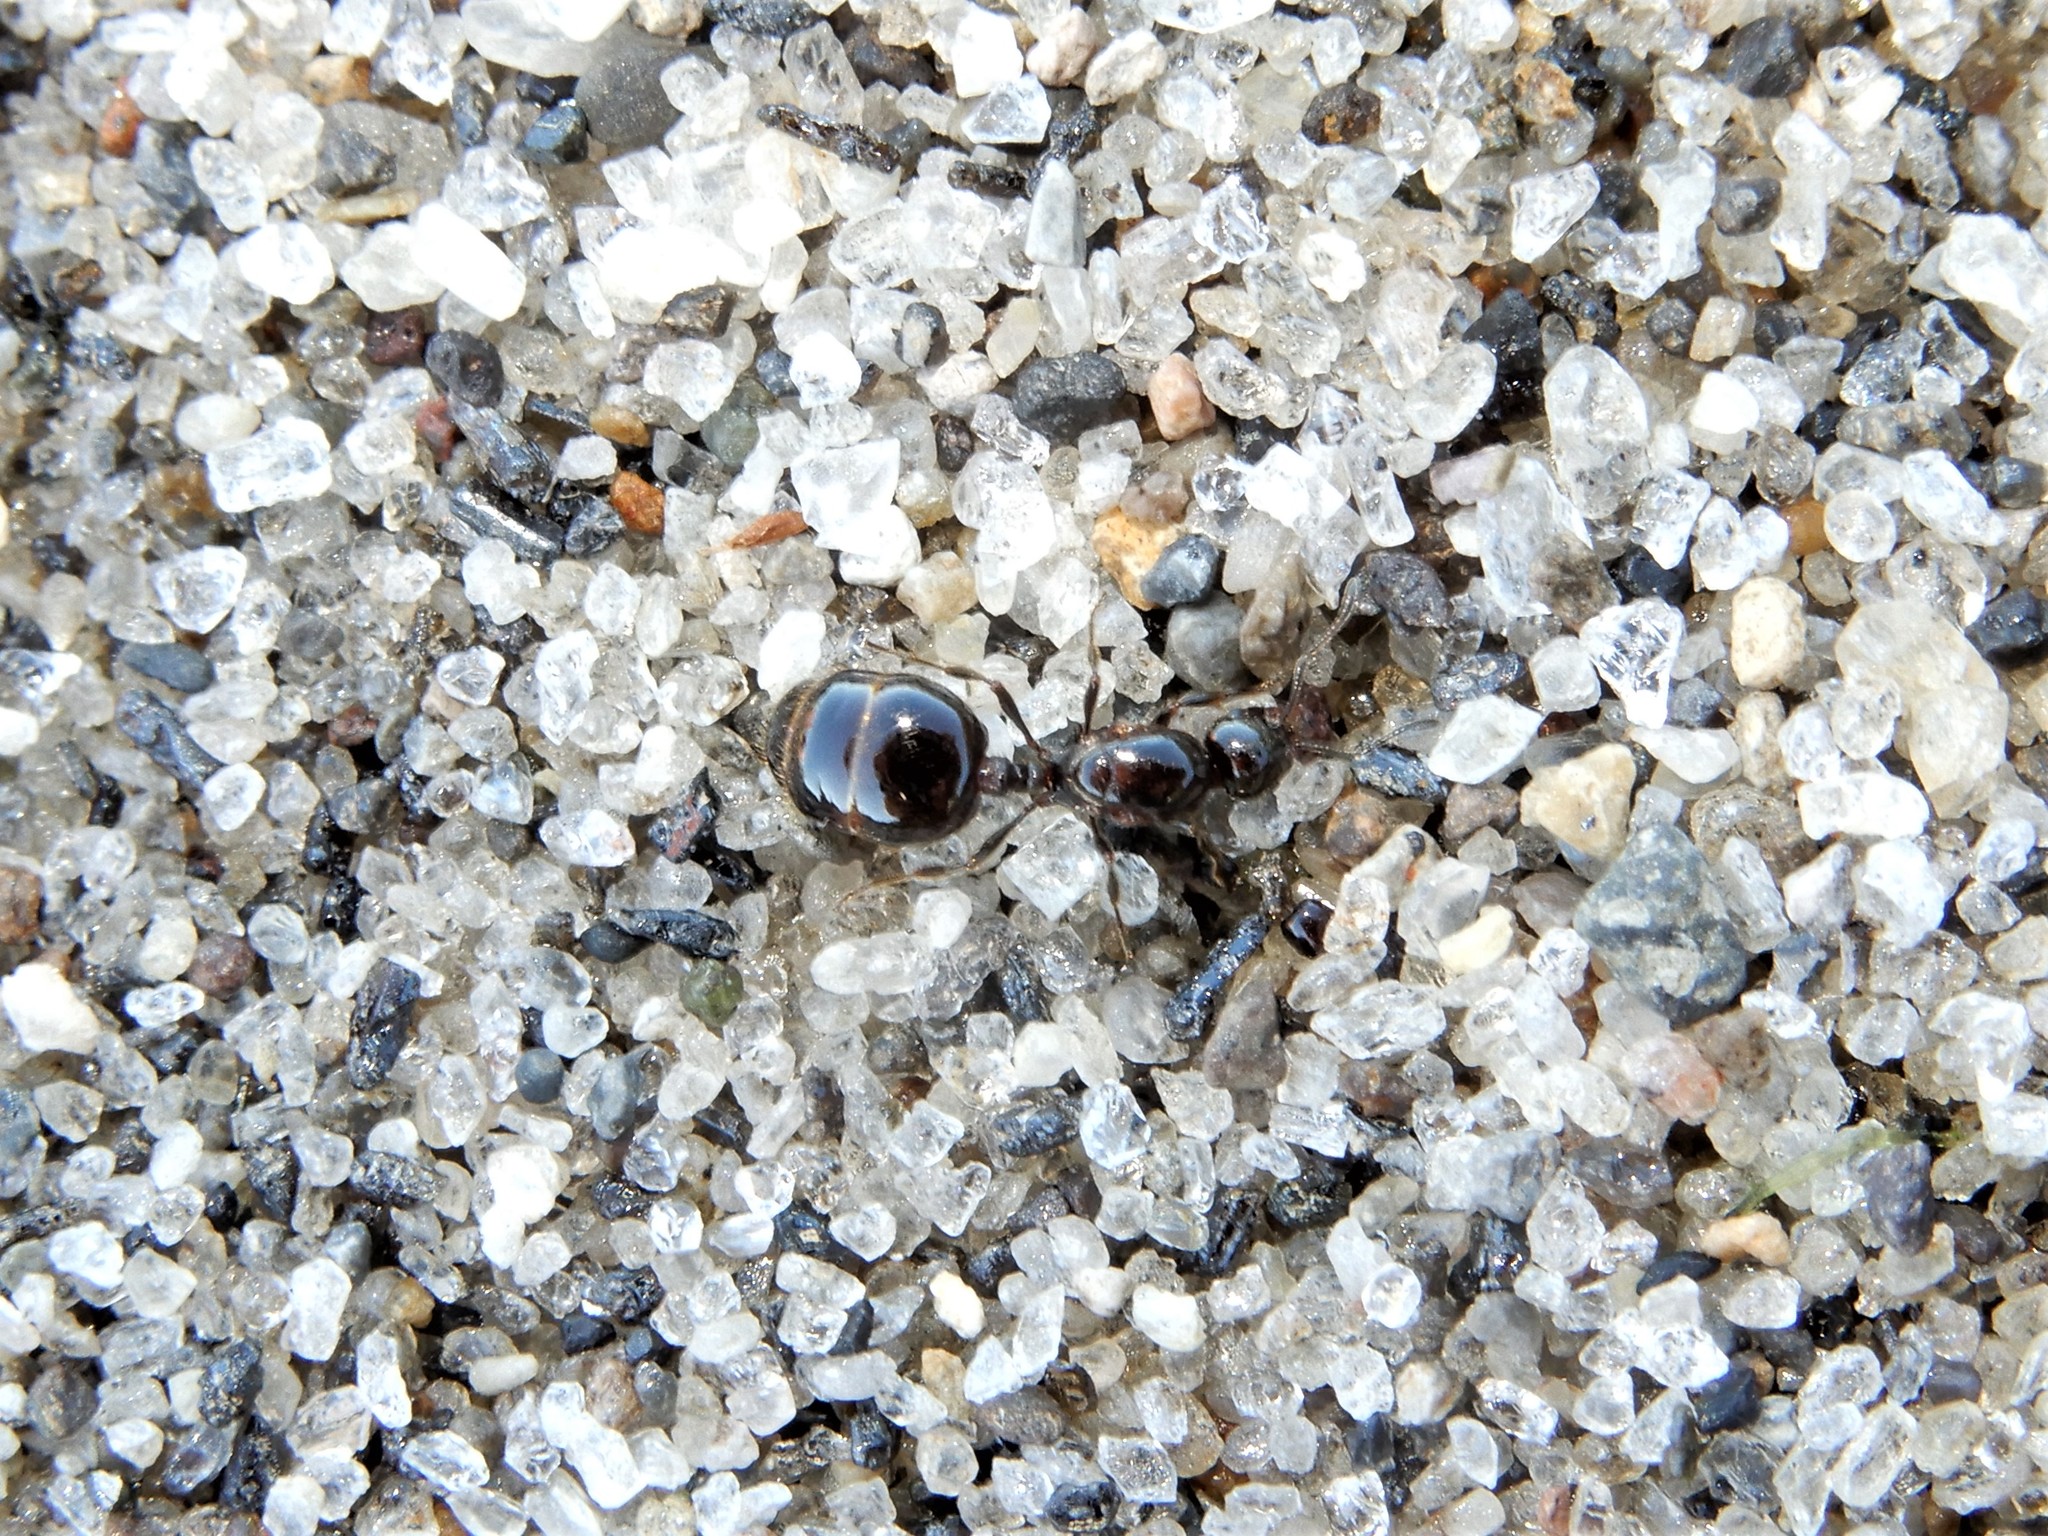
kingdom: Animalia
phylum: Arthropoda
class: Insecta
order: Hymenoptera
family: Formicidae
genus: Monomorium
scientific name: Monomorium antarcticum
